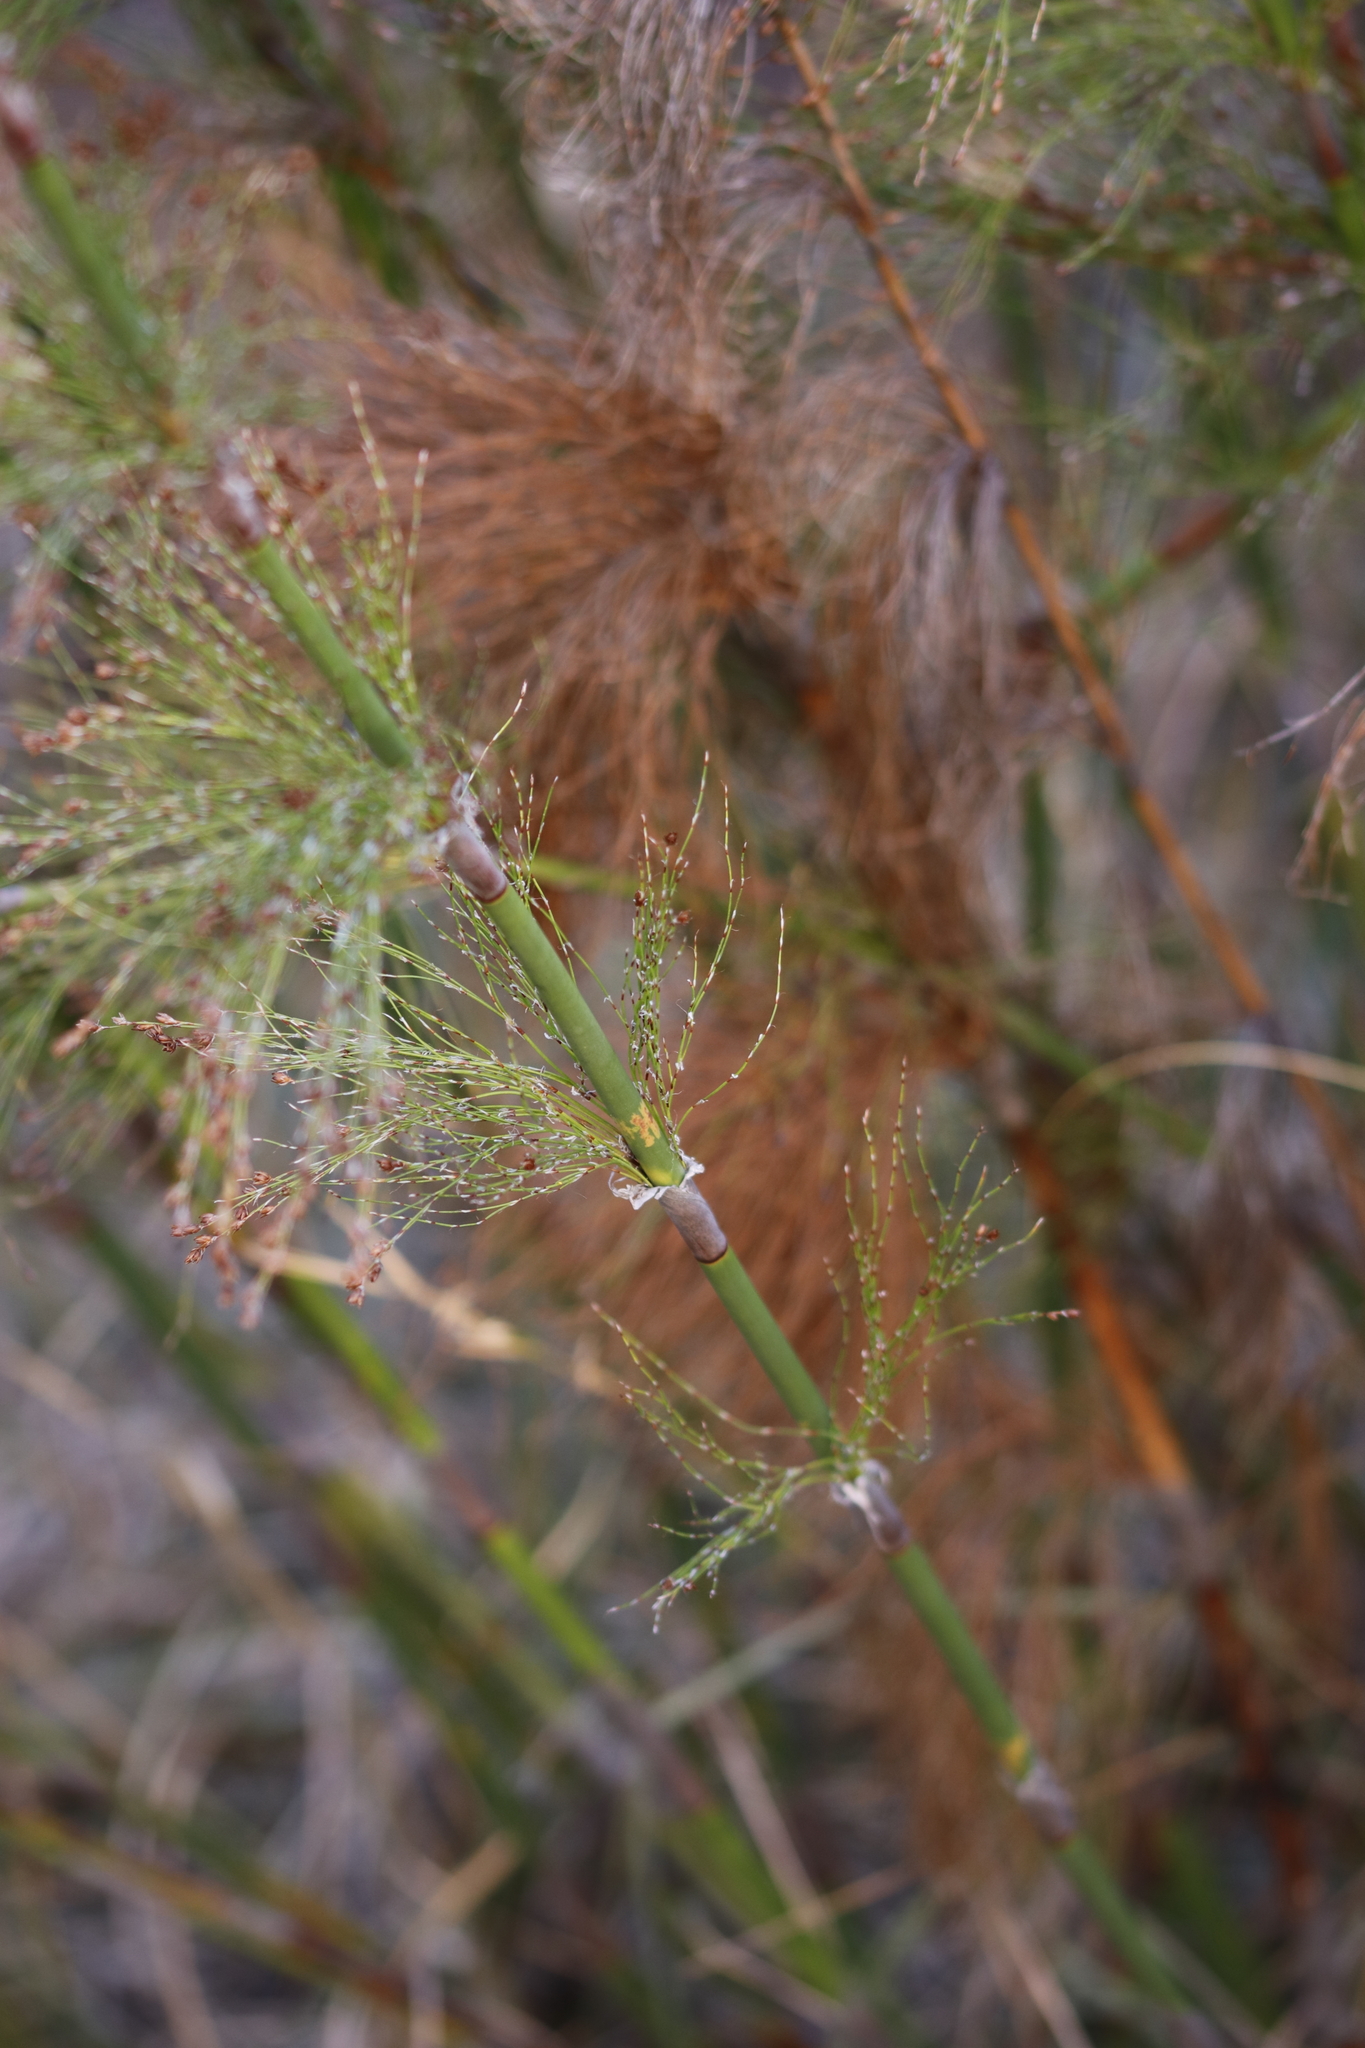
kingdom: Plantae
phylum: Tracheophyta
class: Liliopsida
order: Poales
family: Restionaceae
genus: Rhodocoma
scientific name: Rhodocoma capensis
